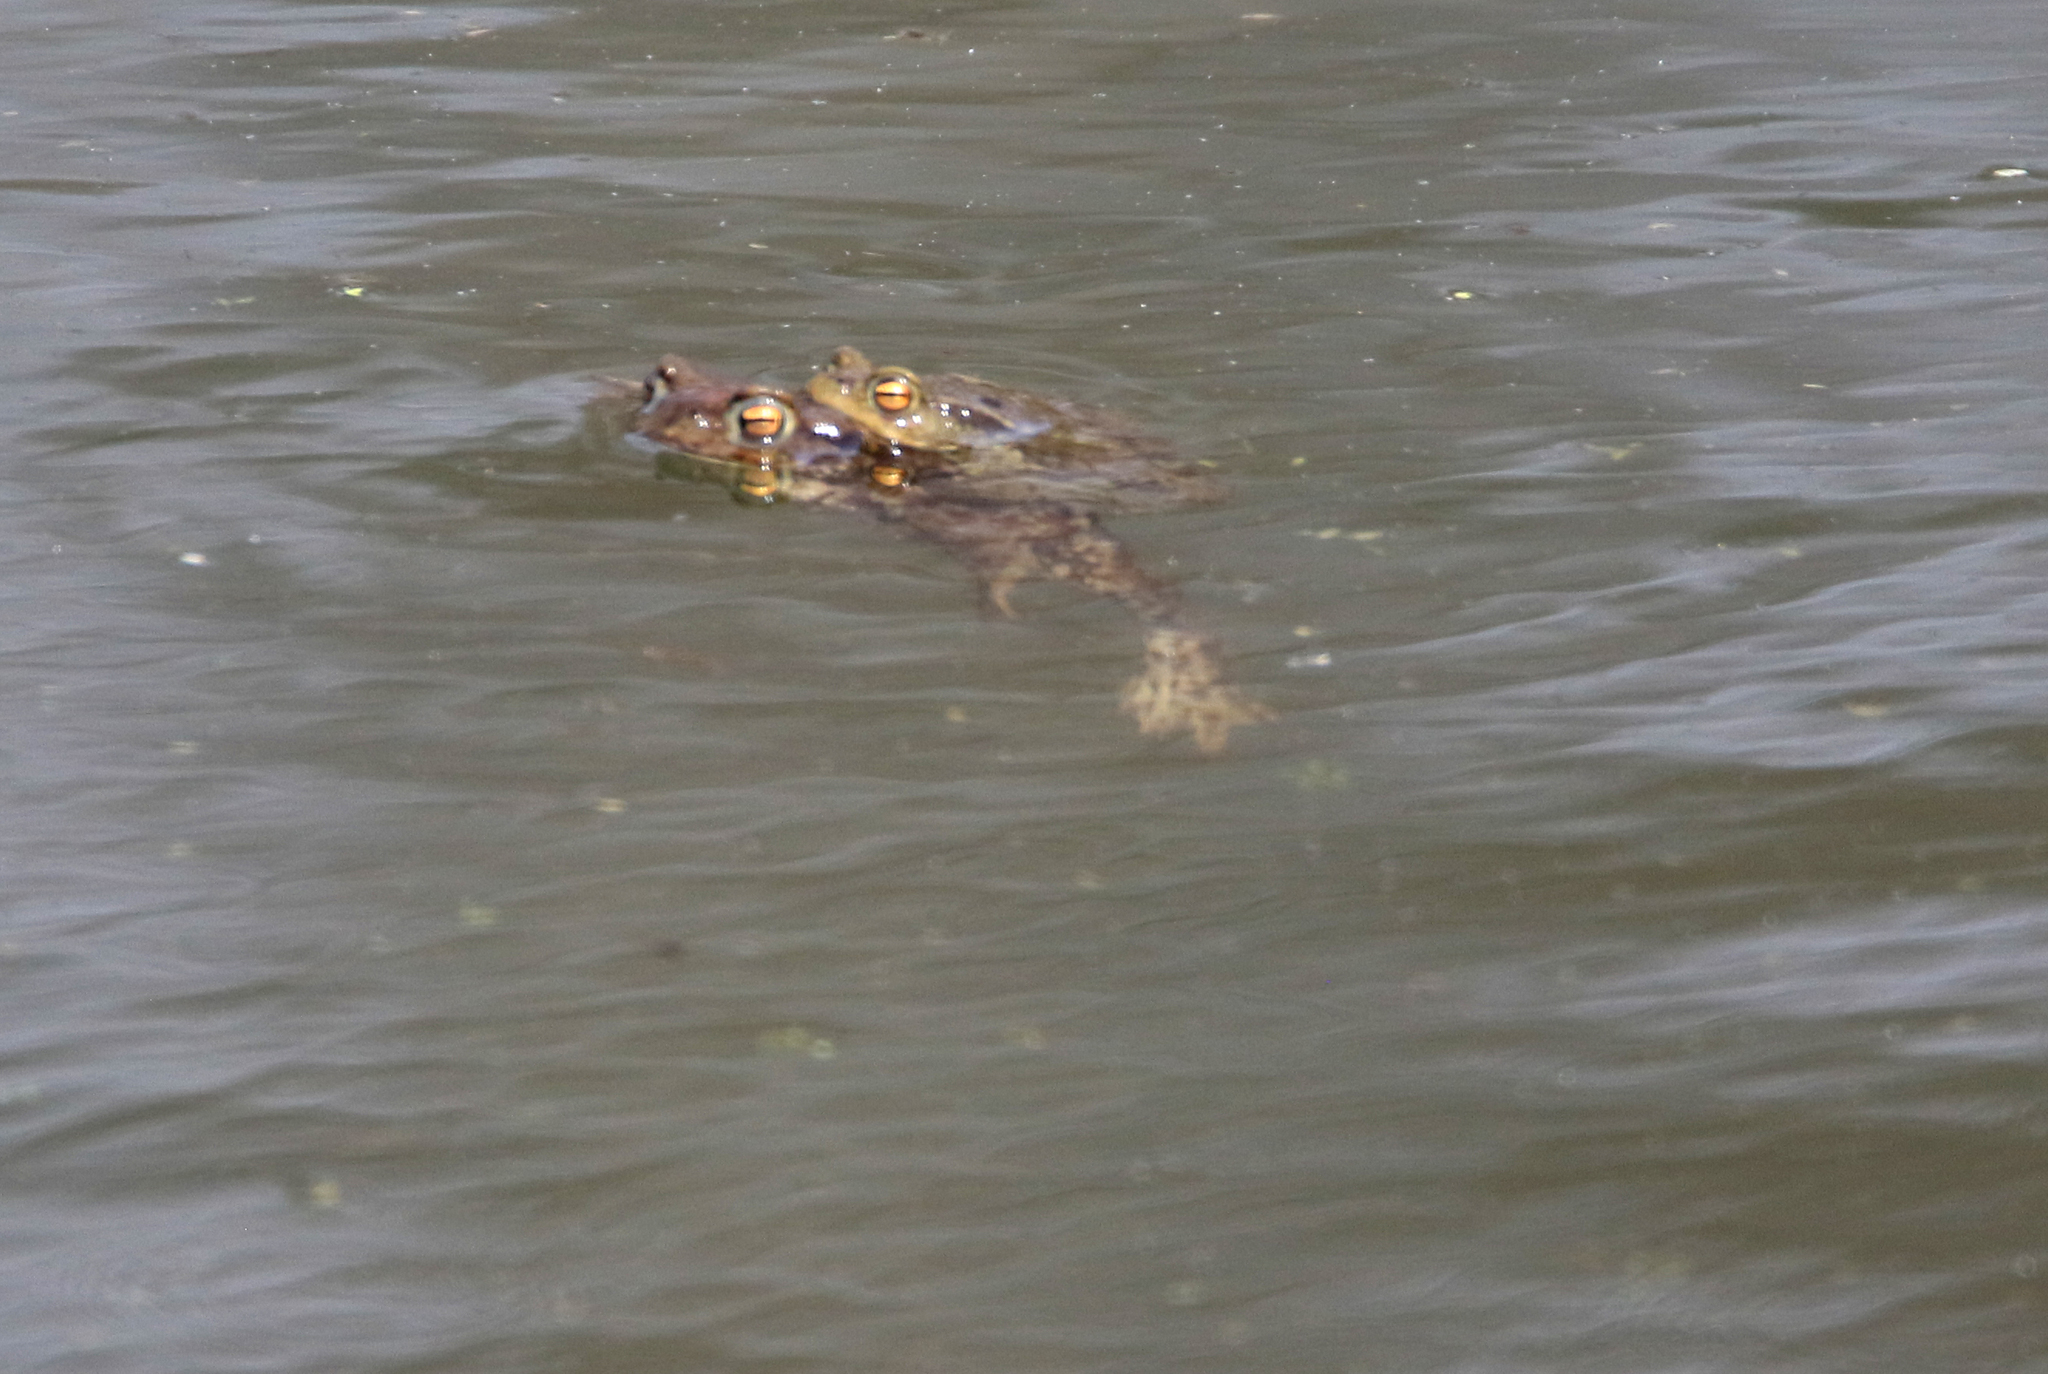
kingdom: Animalia
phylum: Chordata
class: Amphibia
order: Anura
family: Bufonidae
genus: Bufo
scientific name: Bufo bufo
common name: Common toad
